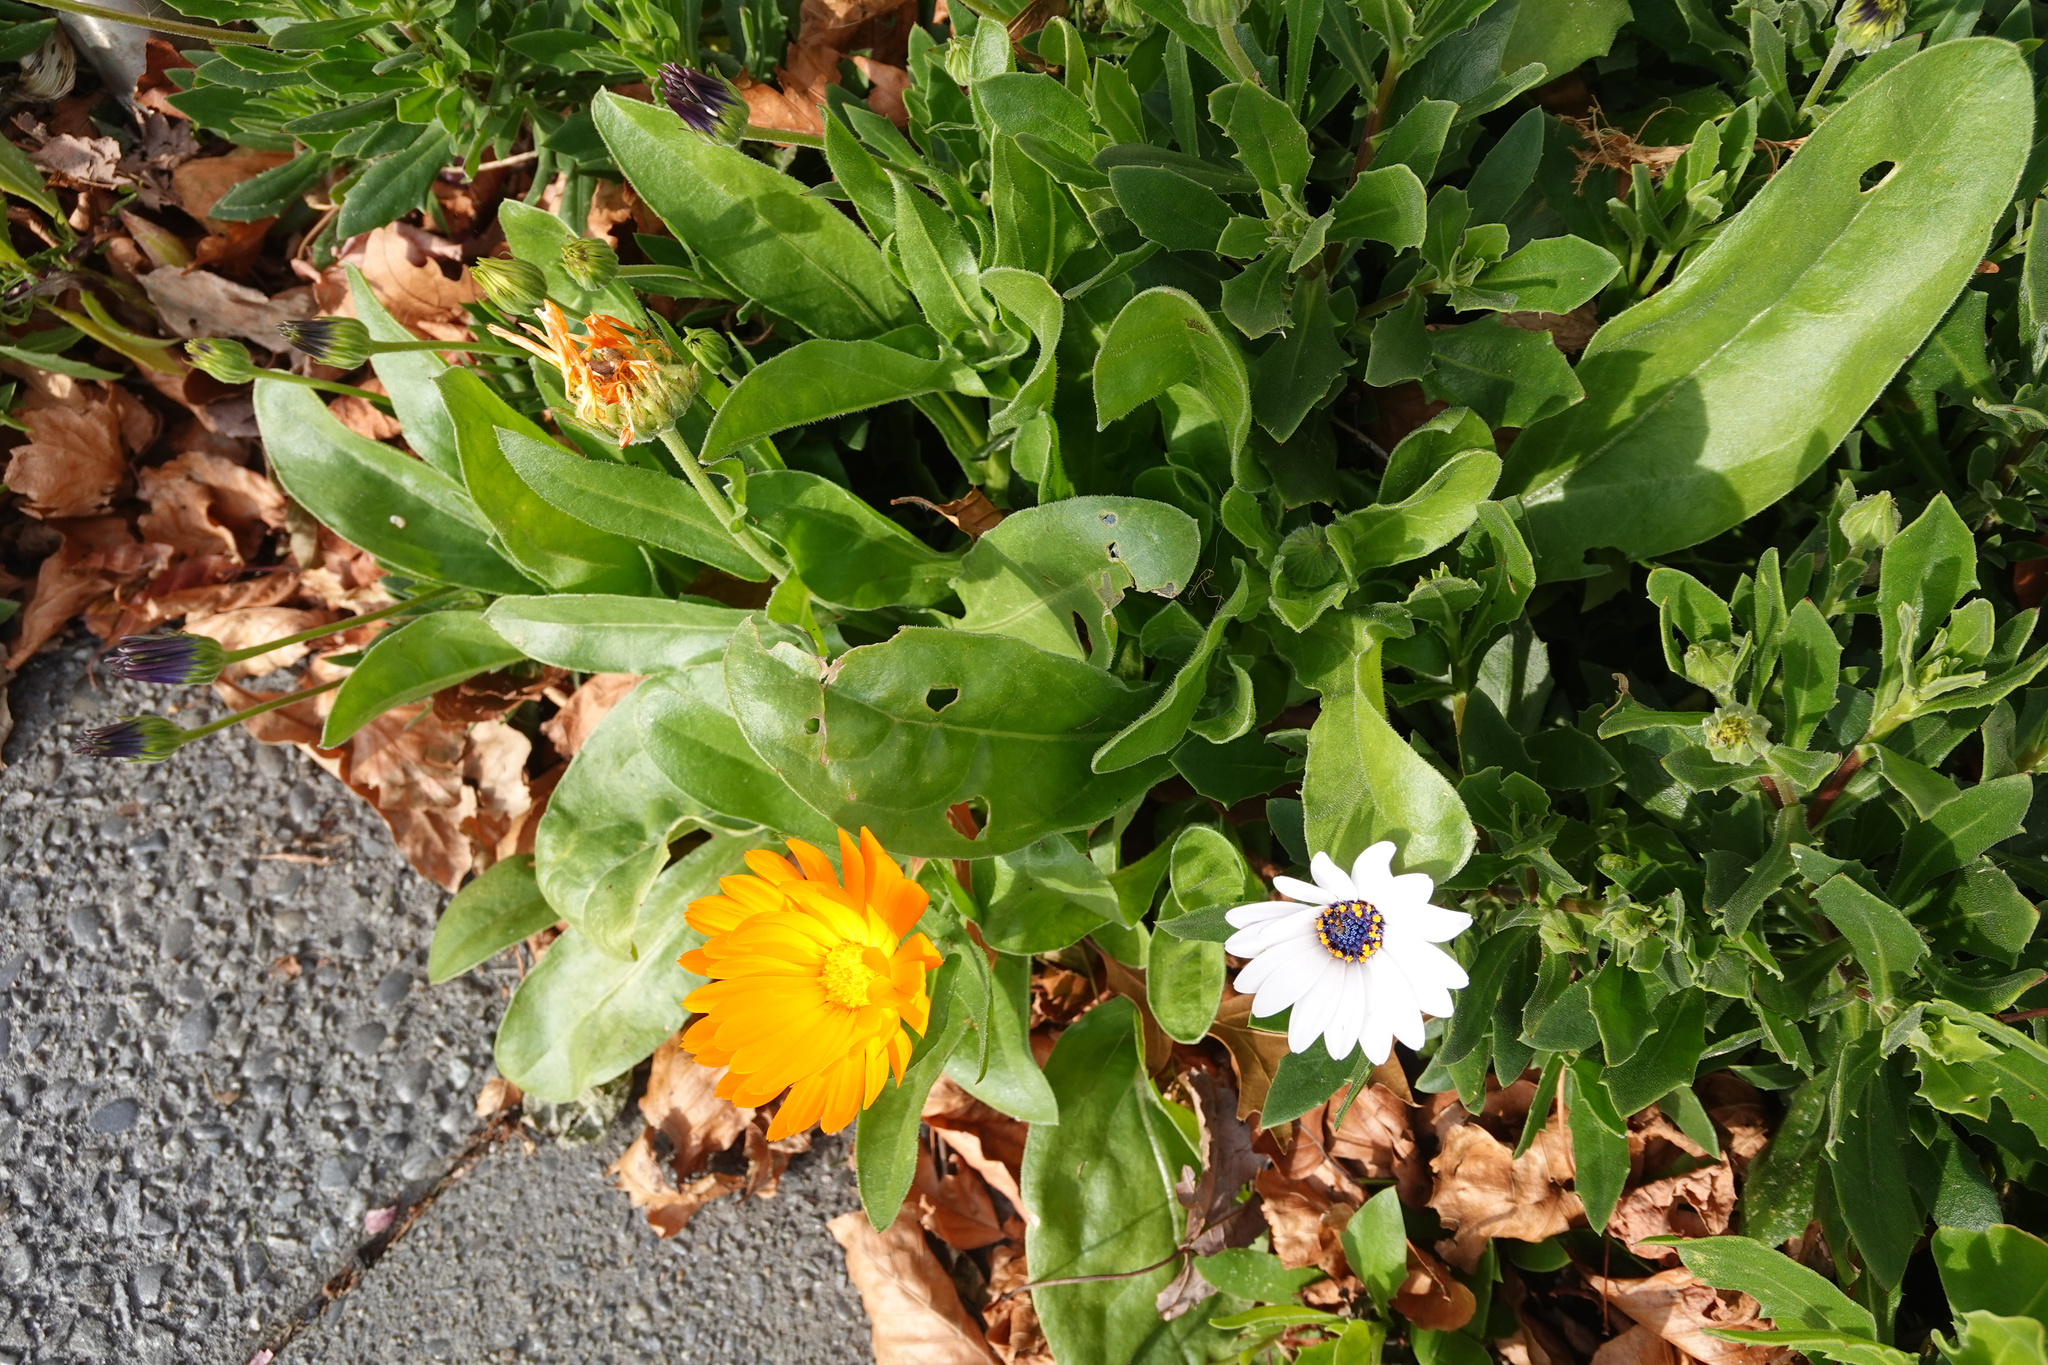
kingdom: Plantae
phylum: Tracheophyta
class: Magnoliopsida
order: Asterales
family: Asteraceae
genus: Calendula
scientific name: Calendula officinalis
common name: Pot marigold
